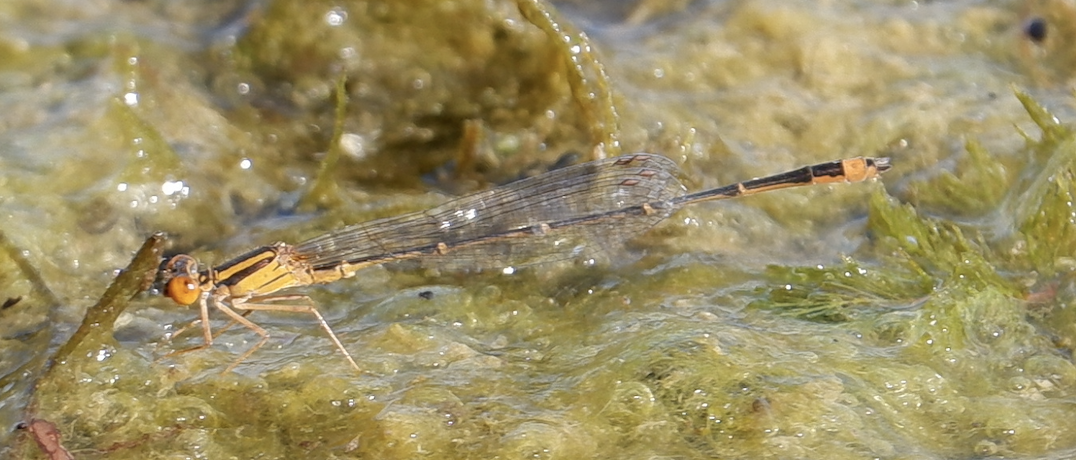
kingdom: Animalia
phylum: Arthropoda
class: Insecta
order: Odonata
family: Coenagrionidae
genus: Enallagma
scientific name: Enallagma signatum
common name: Orange bluet
